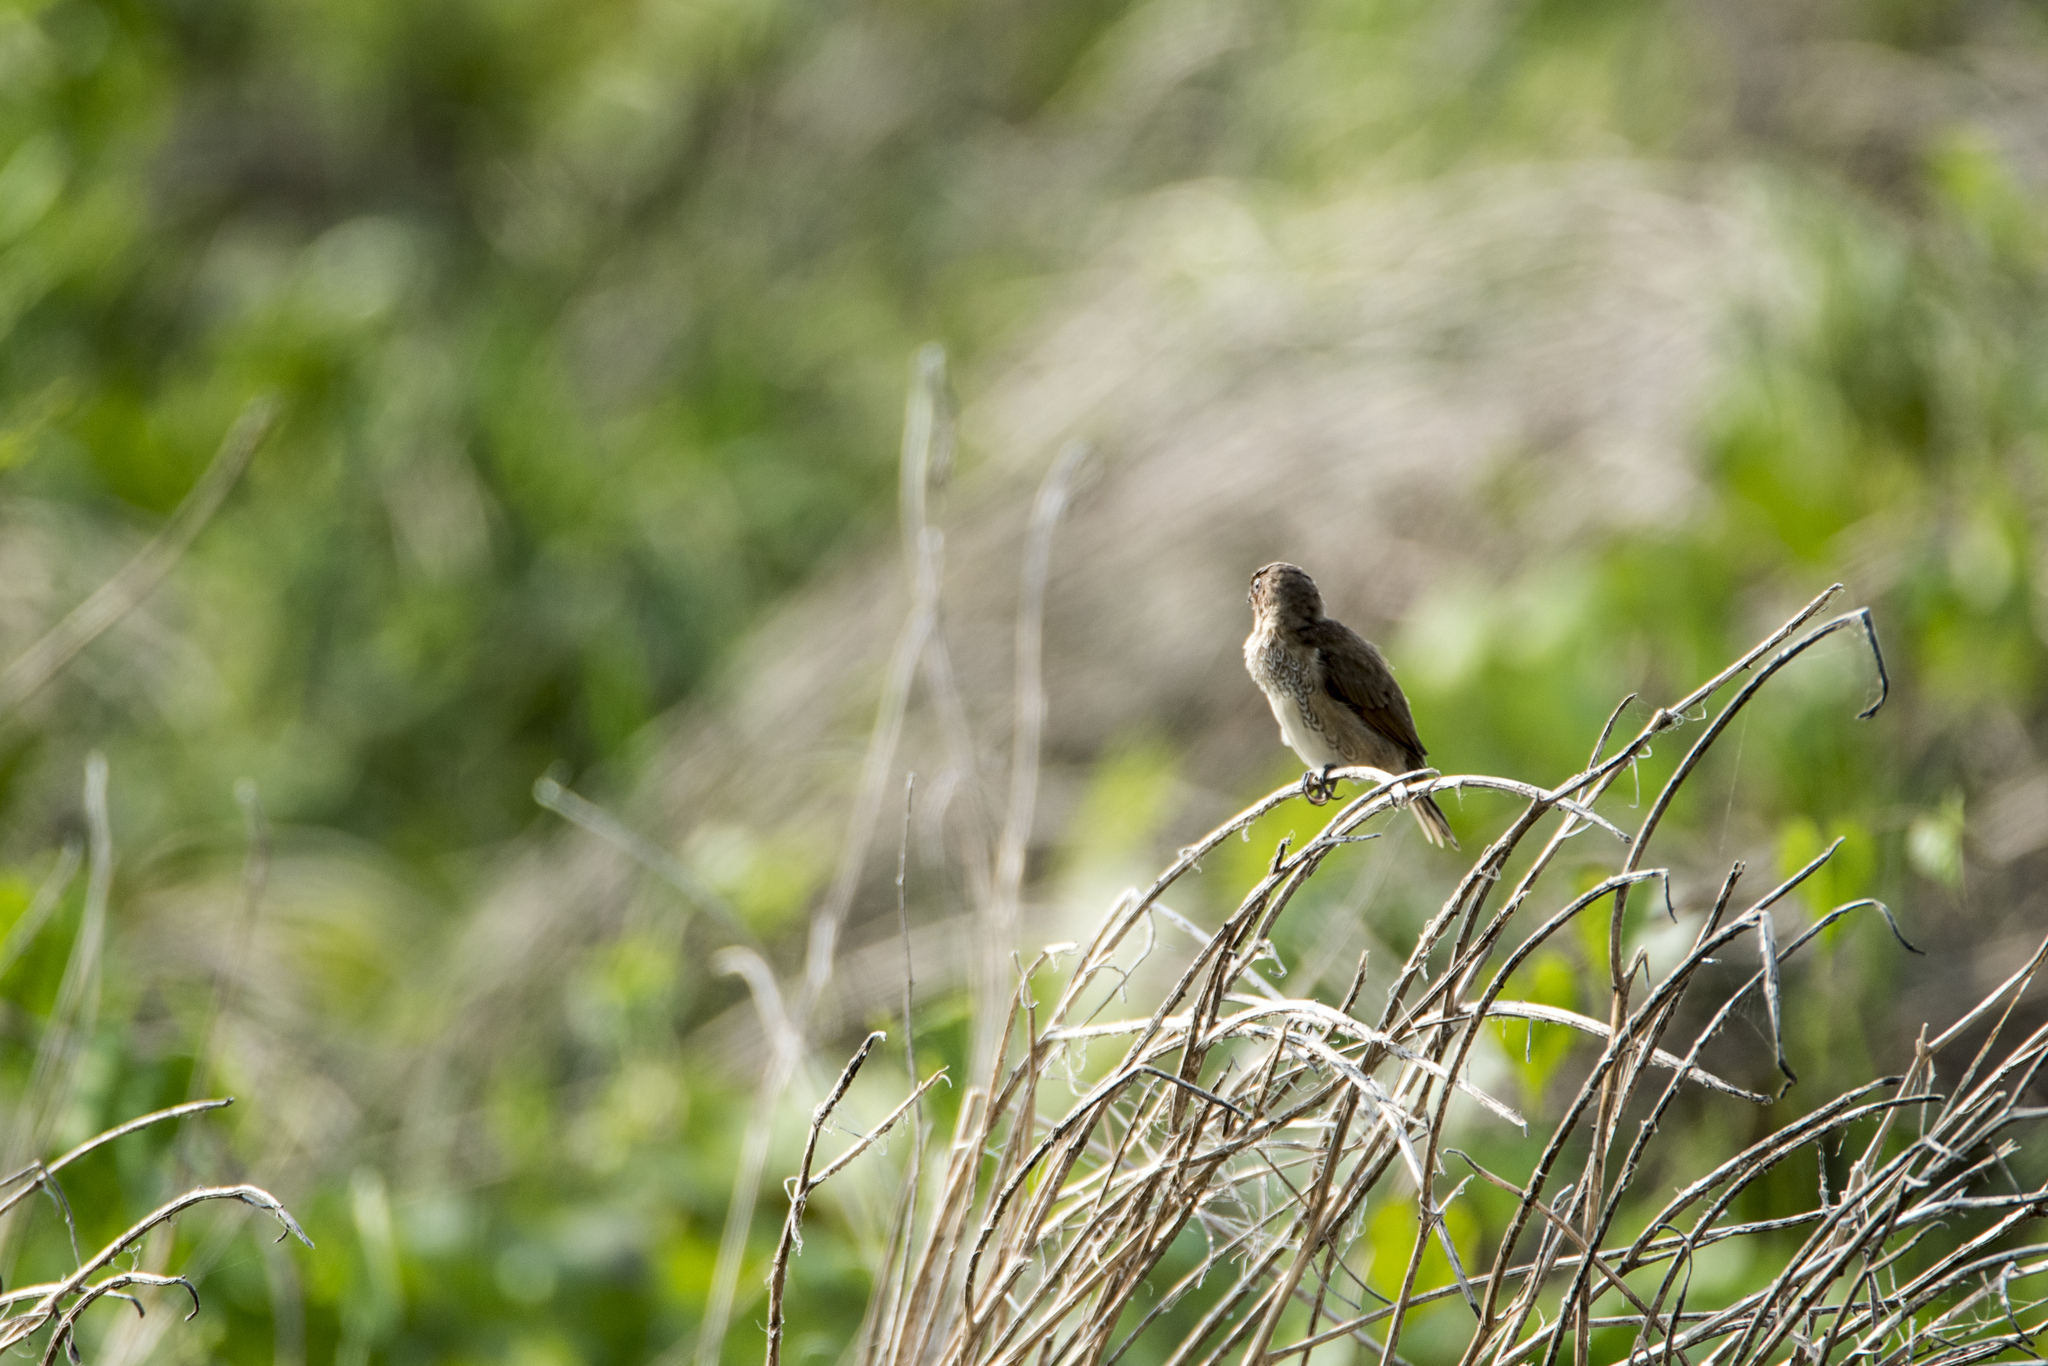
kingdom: Animalia
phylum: Chordata
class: Aves
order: Passeriformes
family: Estrildidae
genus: Lonchura
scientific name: Lonchura punctulata
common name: Scaly-breasted munia
